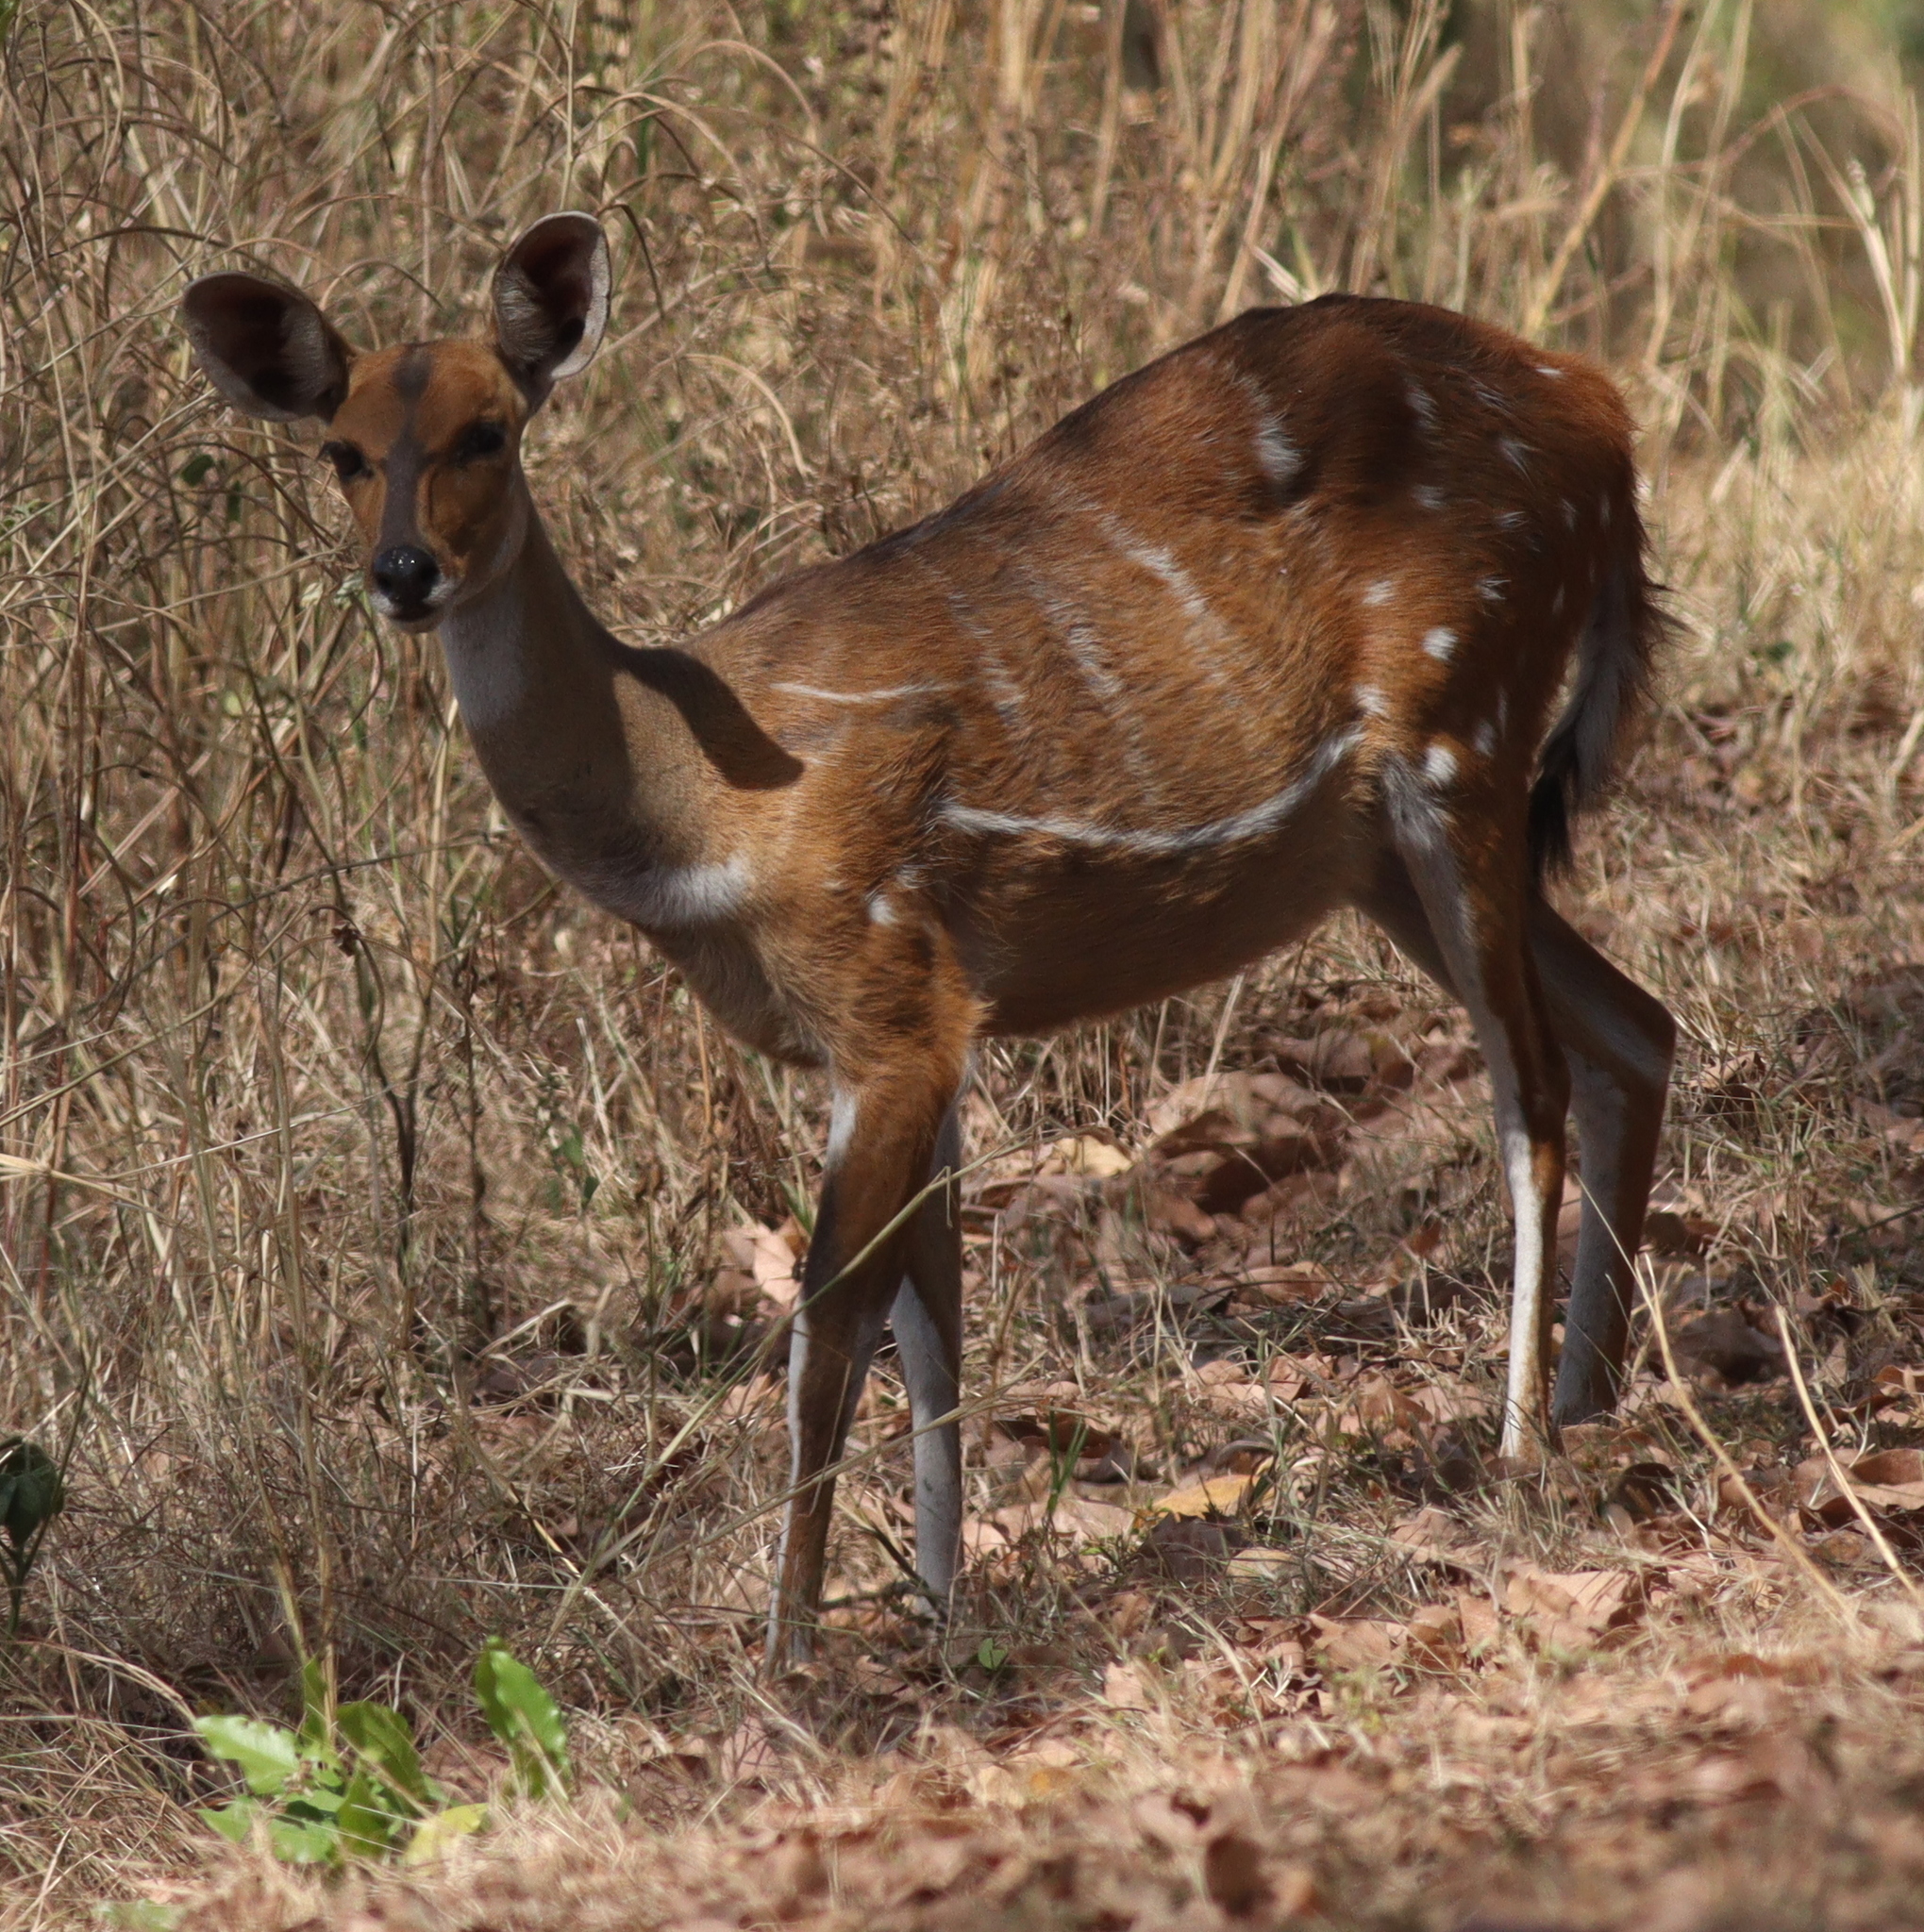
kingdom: Animalia
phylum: Chordata
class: Mammalia
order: Artiodactyla
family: Bovidae
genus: Tragelaphus
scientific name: Tragelaphus scriptus
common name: Bushbuck
